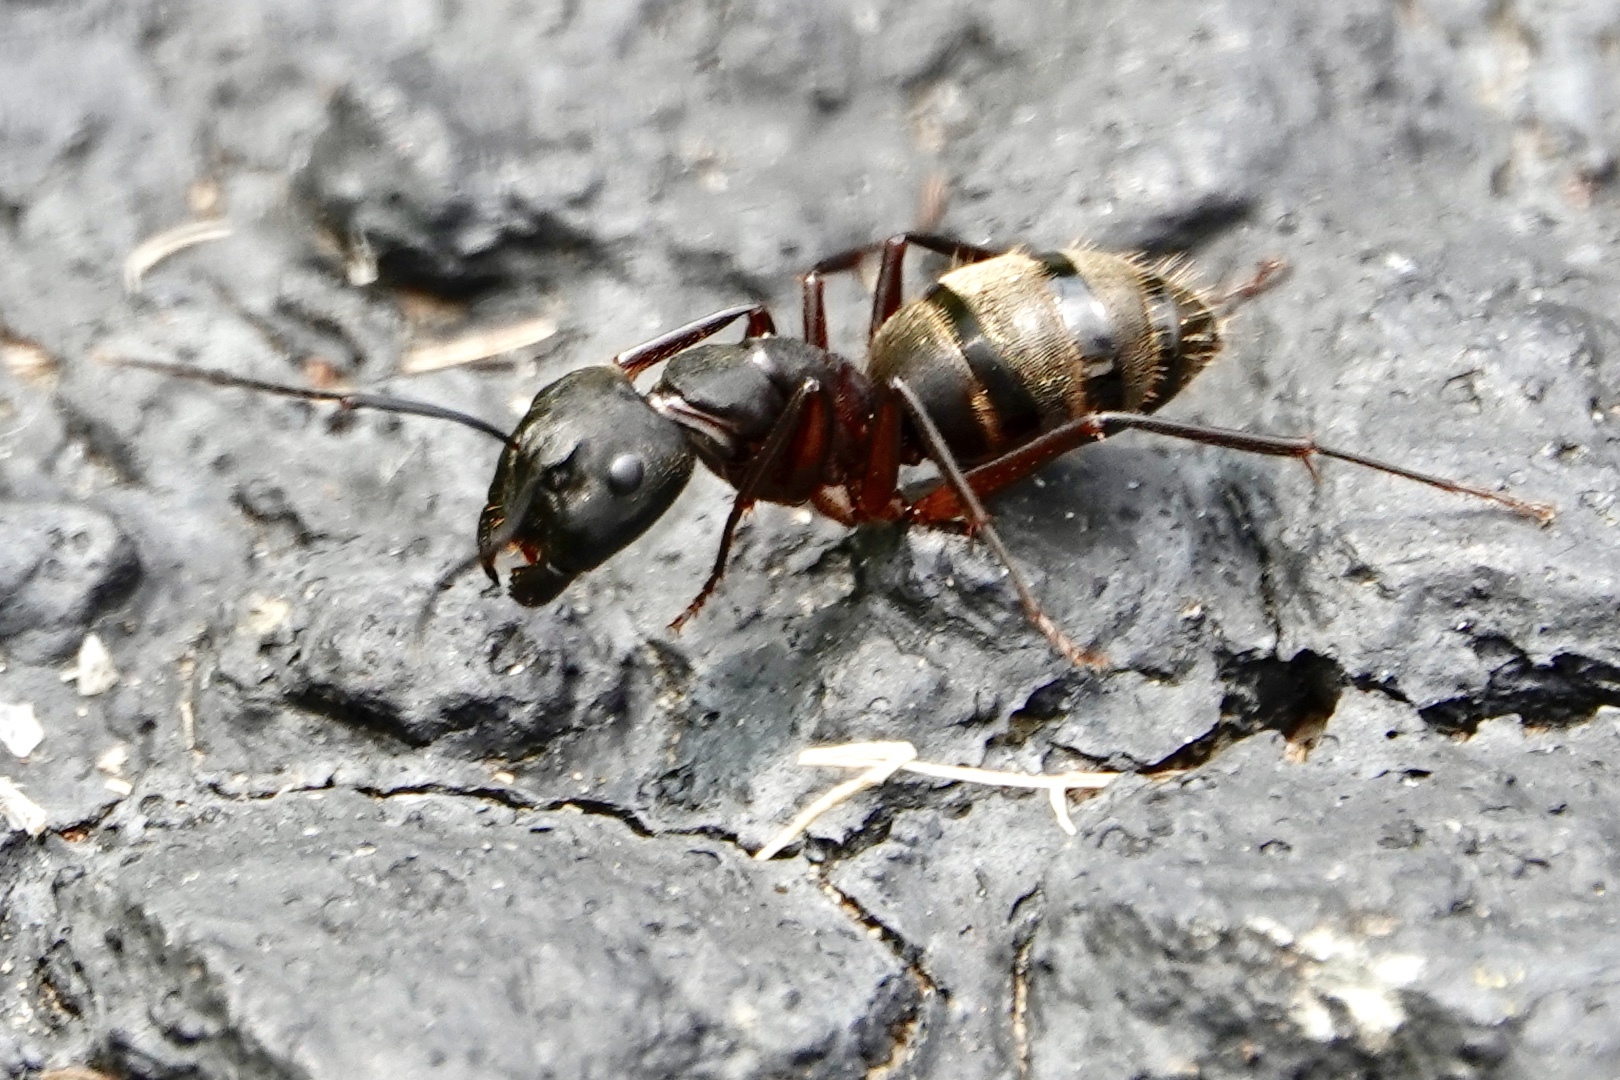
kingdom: Animalia
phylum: Arthropoda
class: Insecta
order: Hymenoptera
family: Formicidae
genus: Camponotus
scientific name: Camponotus chromaiodes
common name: Red carpenter ant
